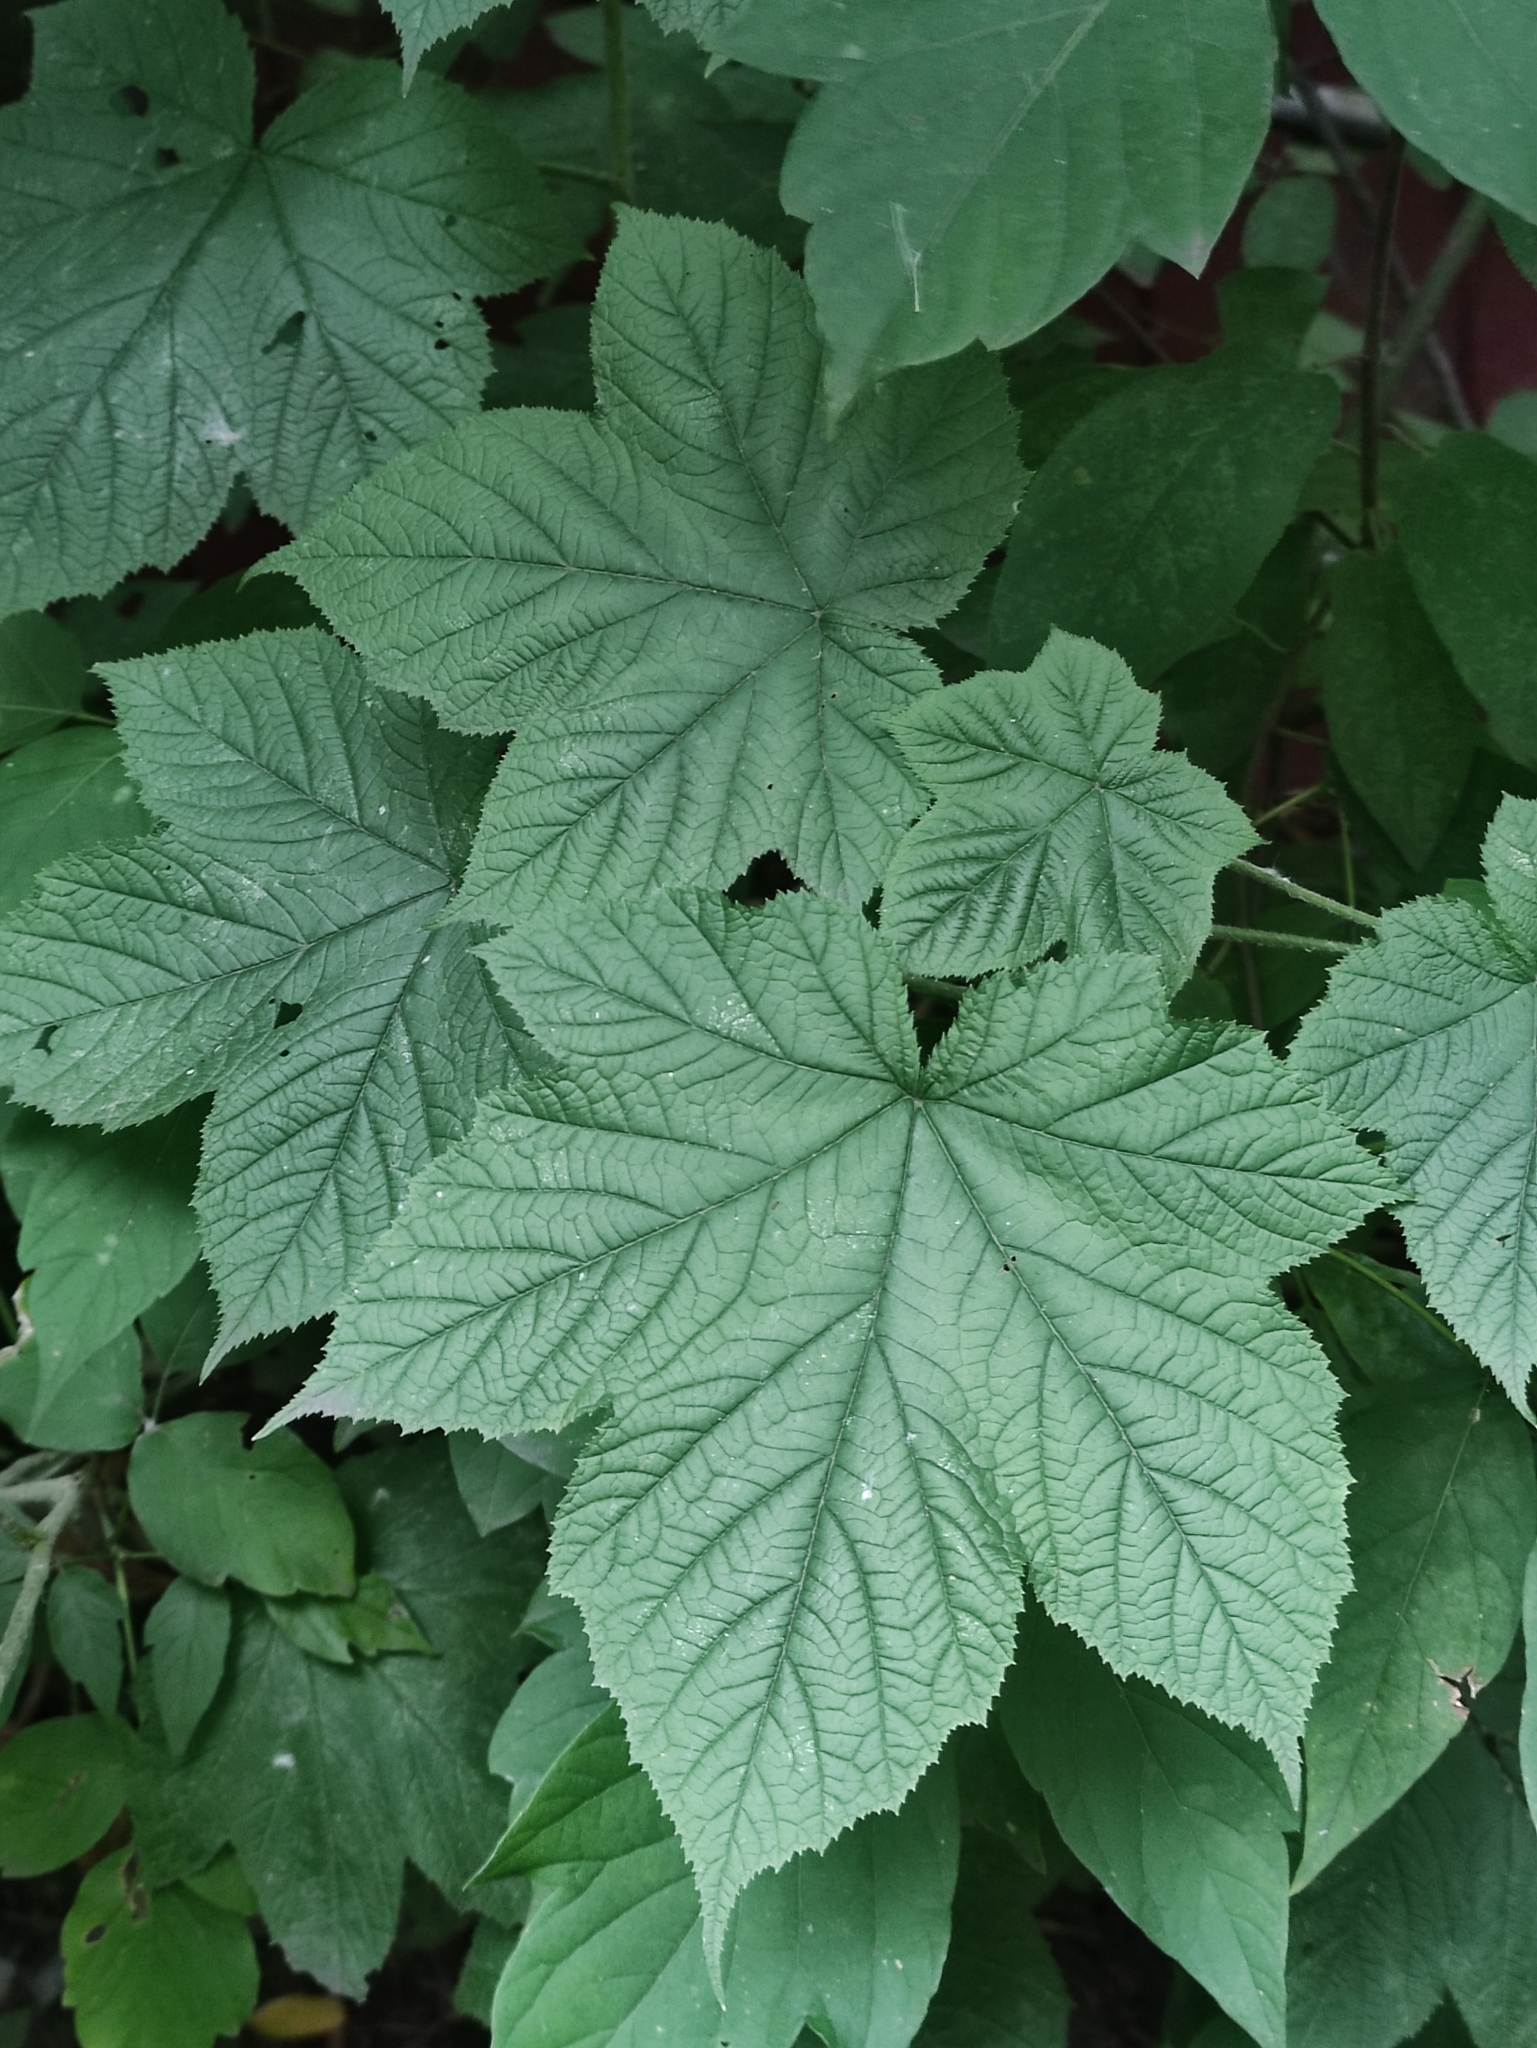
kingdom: Plantae
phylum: Tracheophyta
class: Magnoliopsida
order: Rosales
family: Rosaceae
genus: Rubus
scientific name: Rubus odoratus
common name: Purple-flowered raspberry
